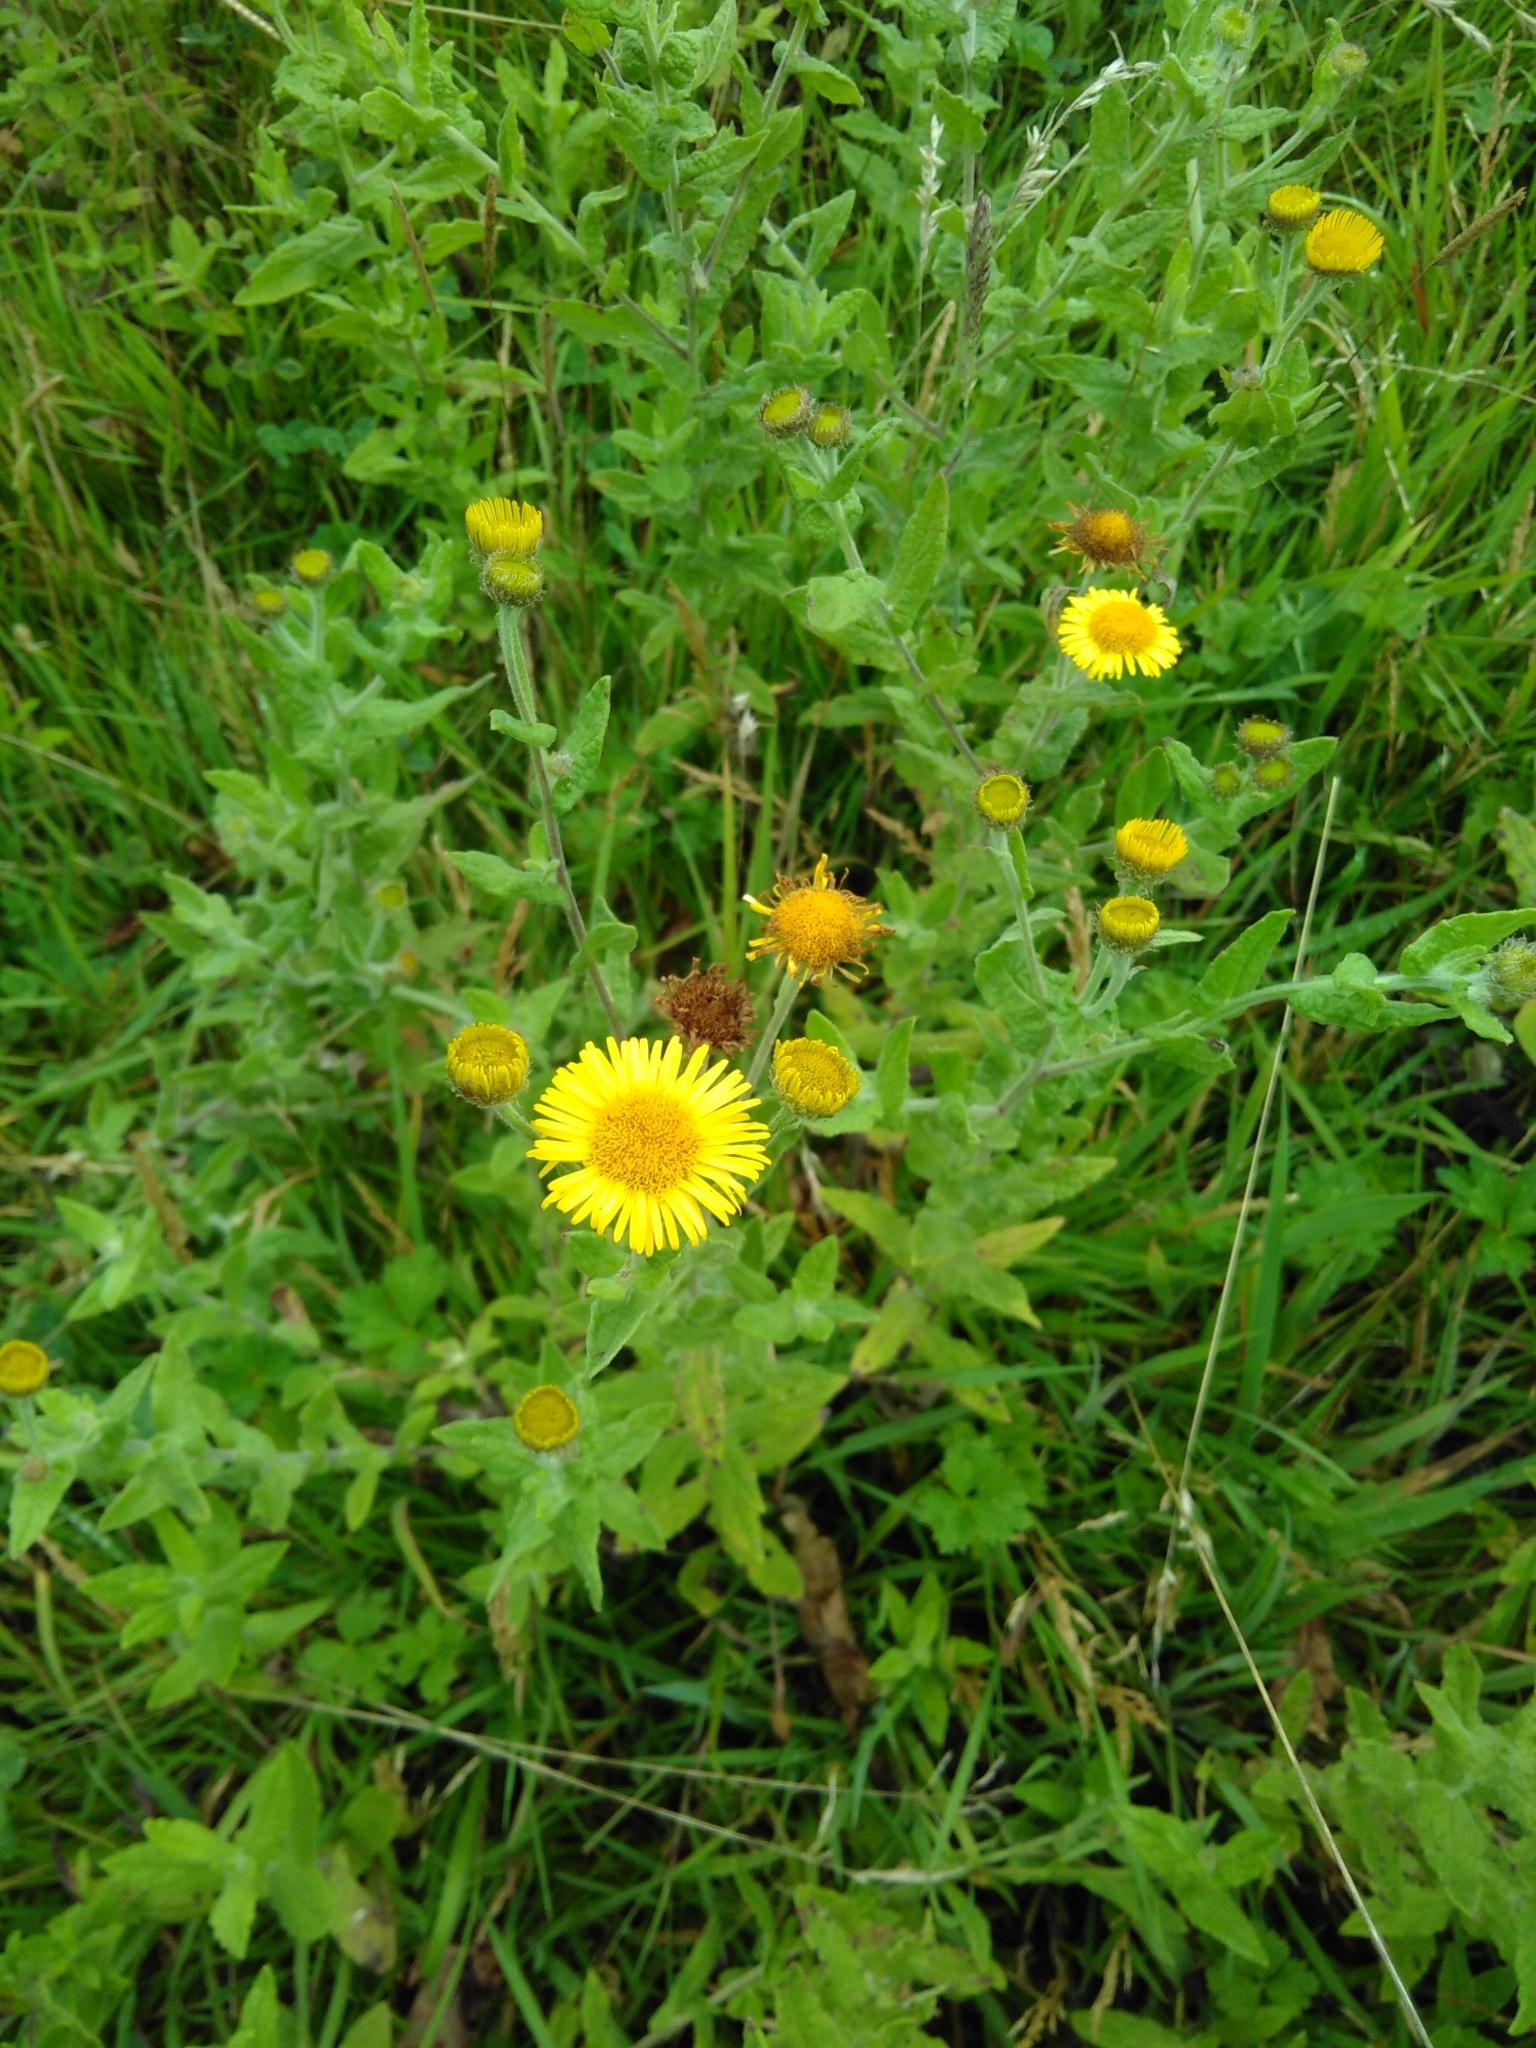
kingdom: Plantae
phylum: Tracheophyta
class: Magnoliopsida
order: Asterales
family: Asteraceae
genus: Pulicaria
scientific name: Pulicaria dysenterica
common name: Common fleabane
